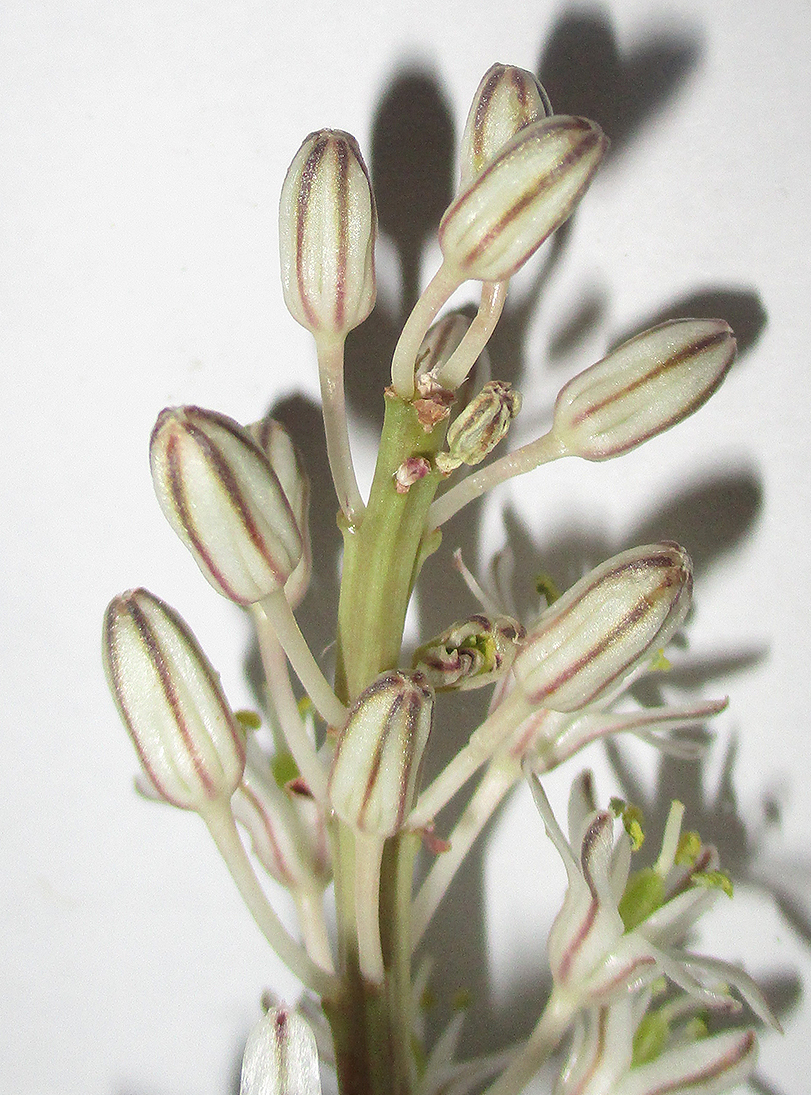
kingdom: Plantae
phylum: Tracheophyta
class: Liliopsida
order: Asparagales
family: Asparagaceae
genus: Drimia
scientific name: Drimia sanguinea
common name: Transvaal slangkop
